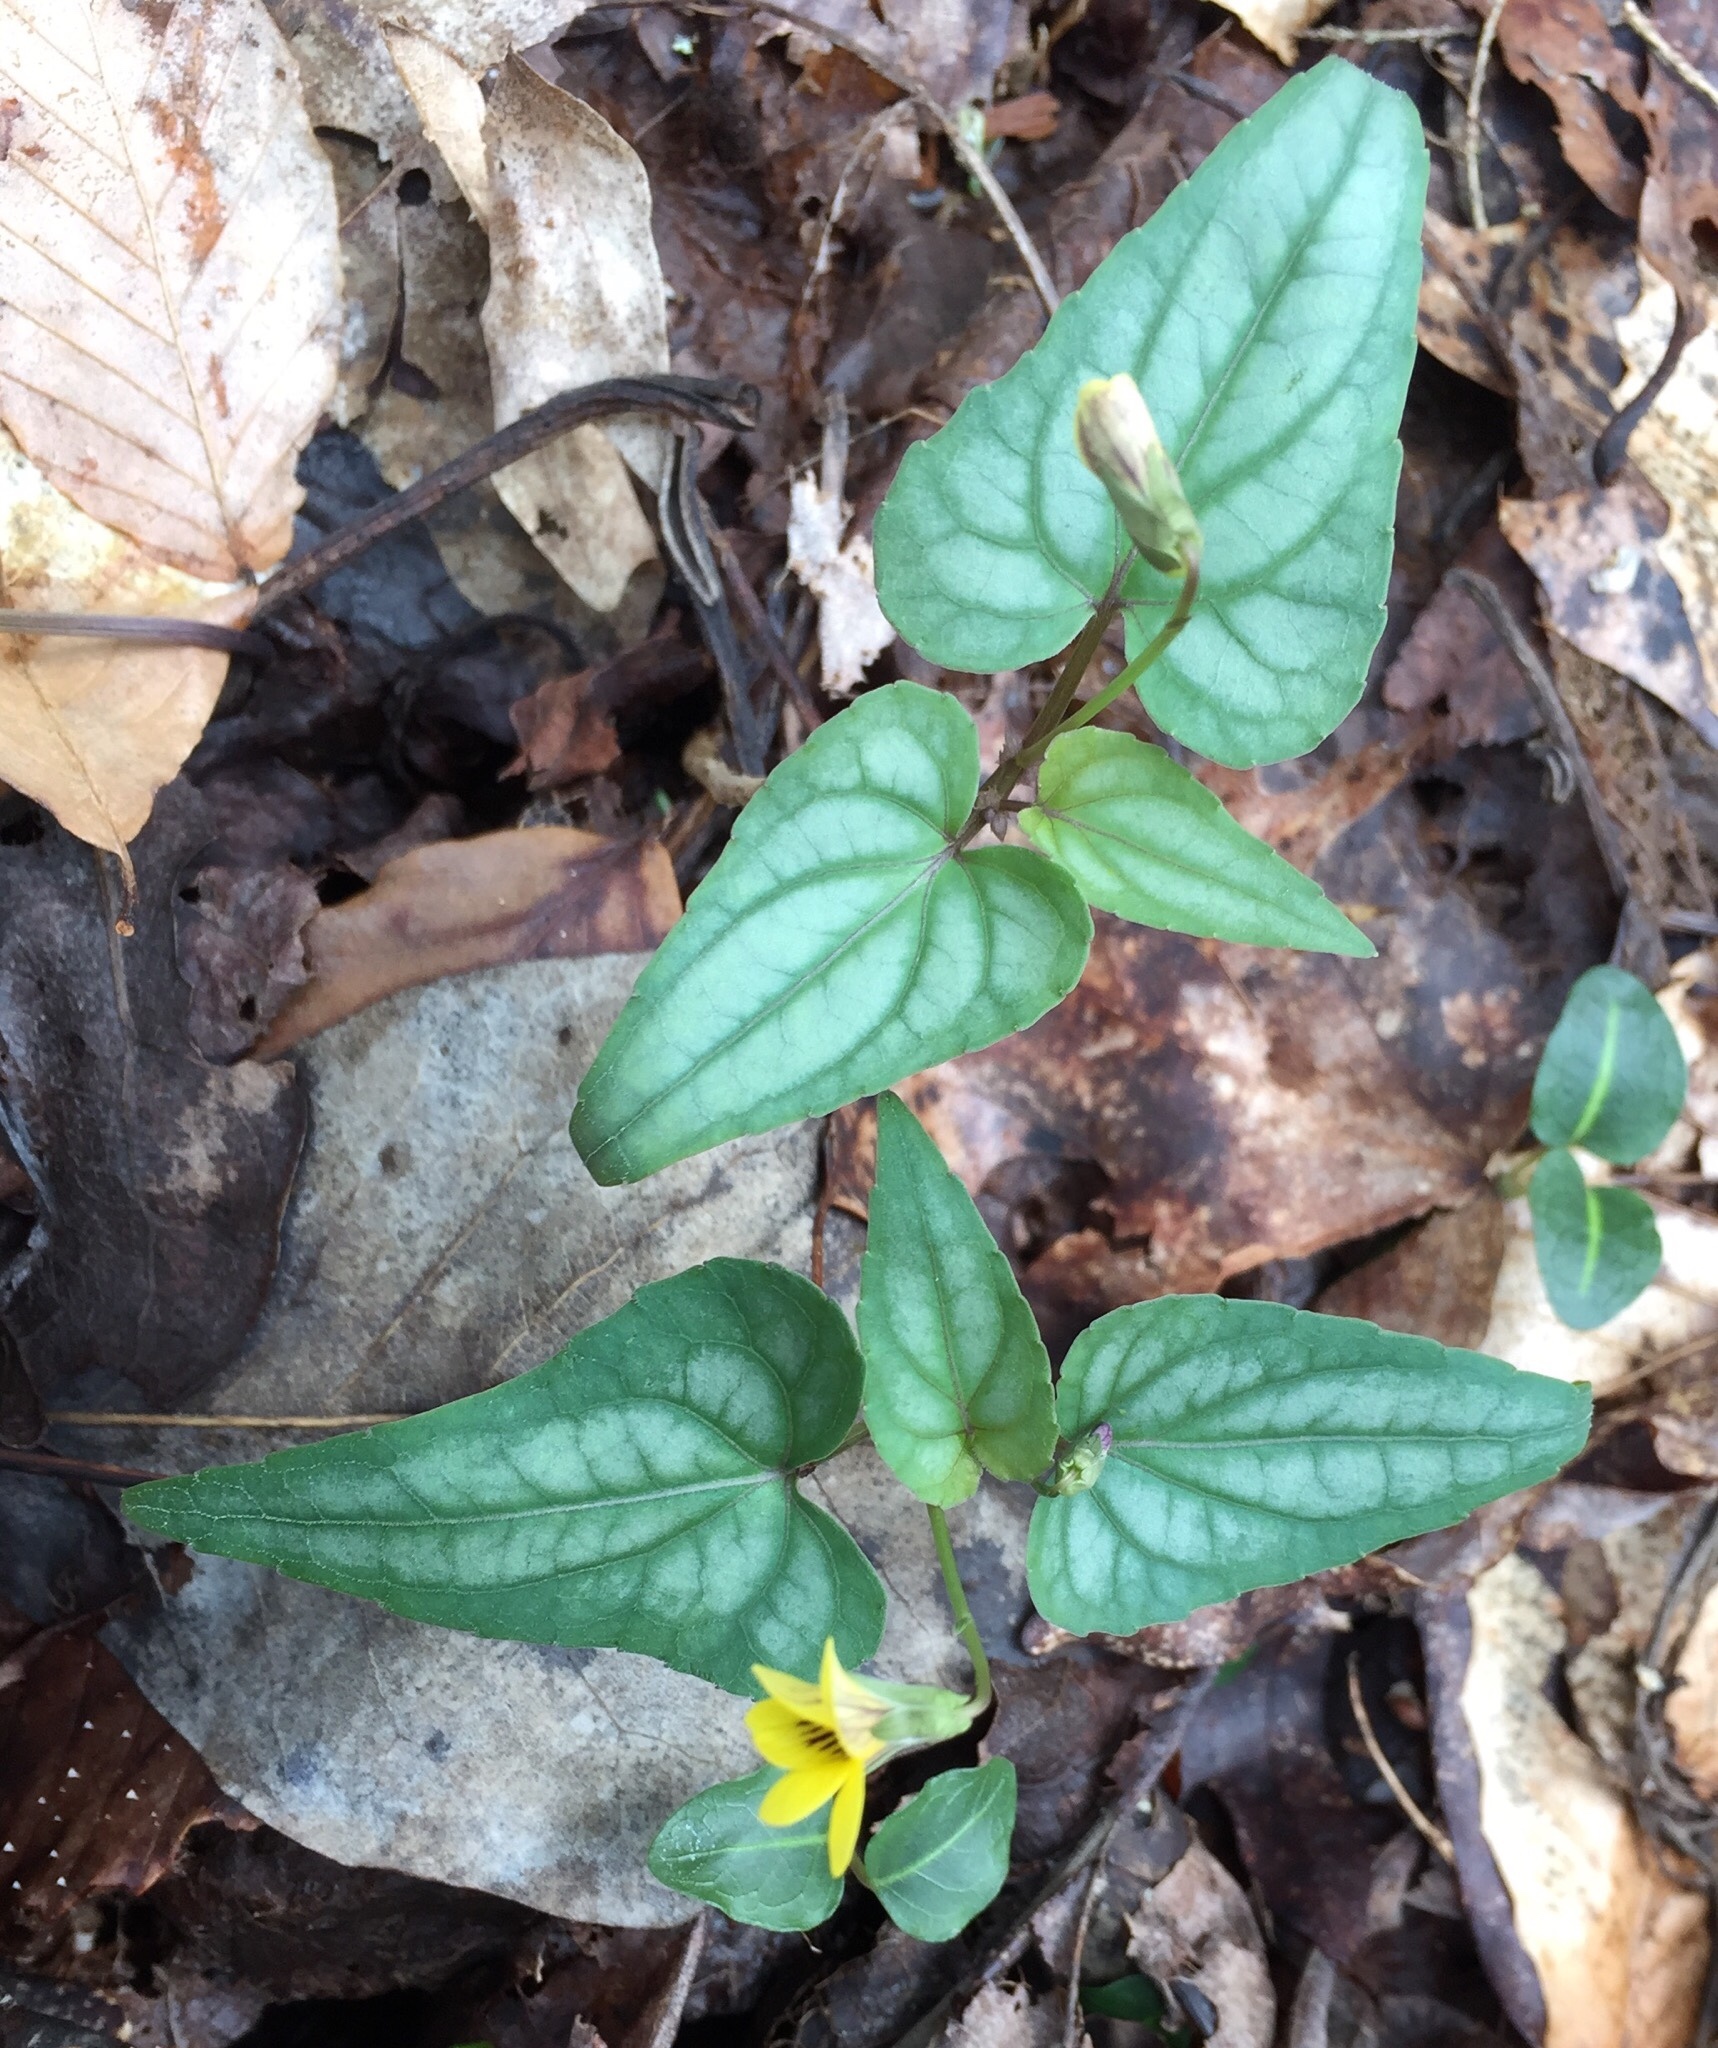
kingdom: Plantae
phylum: Tracheophyta
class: Magnoliopsida
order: Malpighiales
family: Violaceae
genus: Viola
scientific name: Viola hastata
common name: Spear-leaf violet
